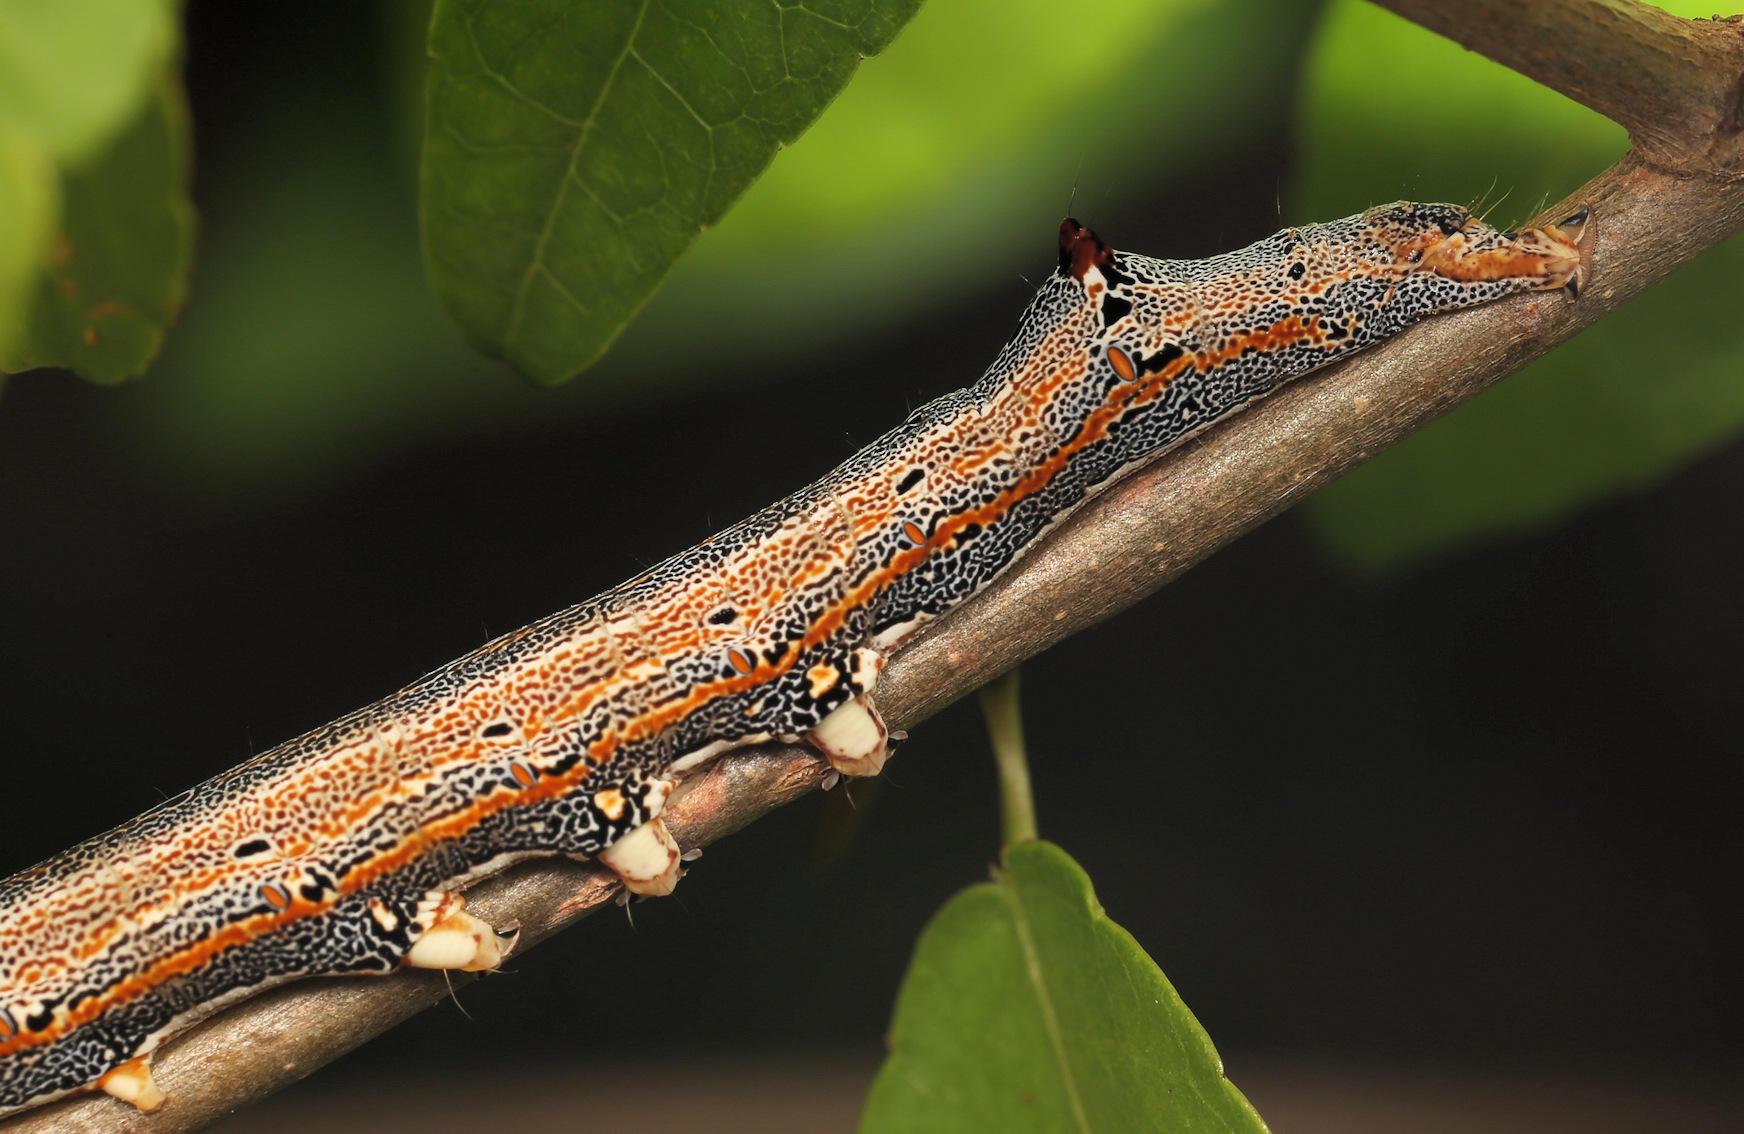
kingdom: Animalia
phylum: Arthropoda
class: Insecta
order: Lepidoptera
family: Erebidae
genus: Achaea
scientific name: Achaea catella
